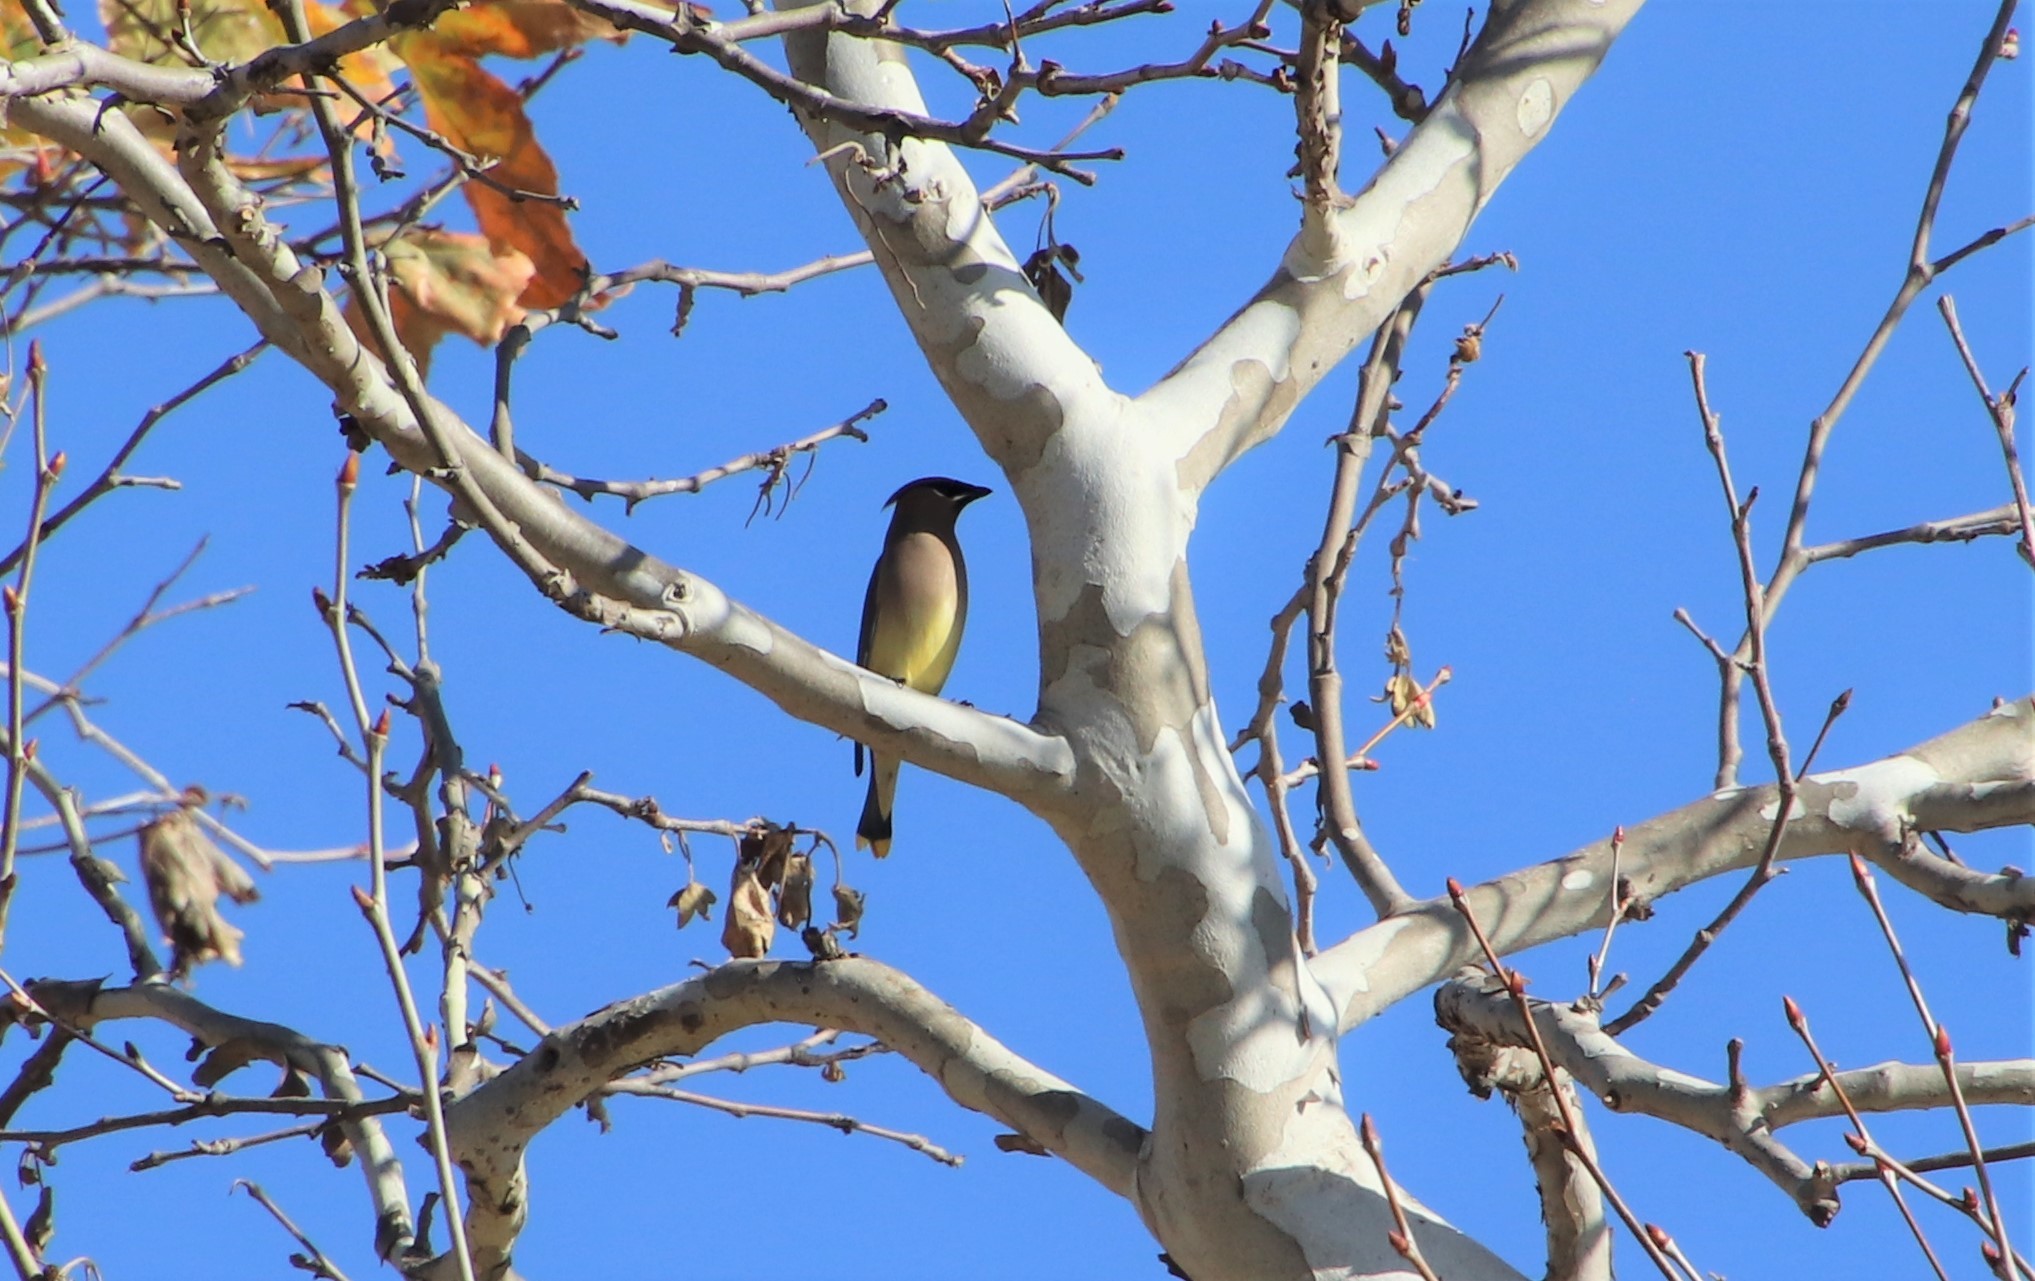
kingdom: Animalia
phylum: Chordata
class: Aves
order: Passeriformes
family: Bombycillidae
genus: Bombycilla
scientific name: Bombycilla cedrorum
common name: Cedar waxwing
